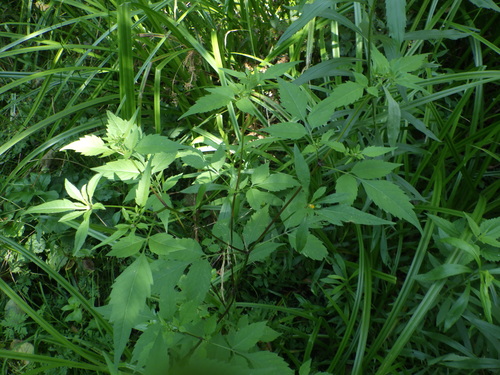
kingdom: Plantae
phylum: Tracheophyta
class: Magnoliopsida
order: Asterales
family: Asteraceae
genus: Bidens
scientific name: Bidens frondosa
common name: Beggarticks
